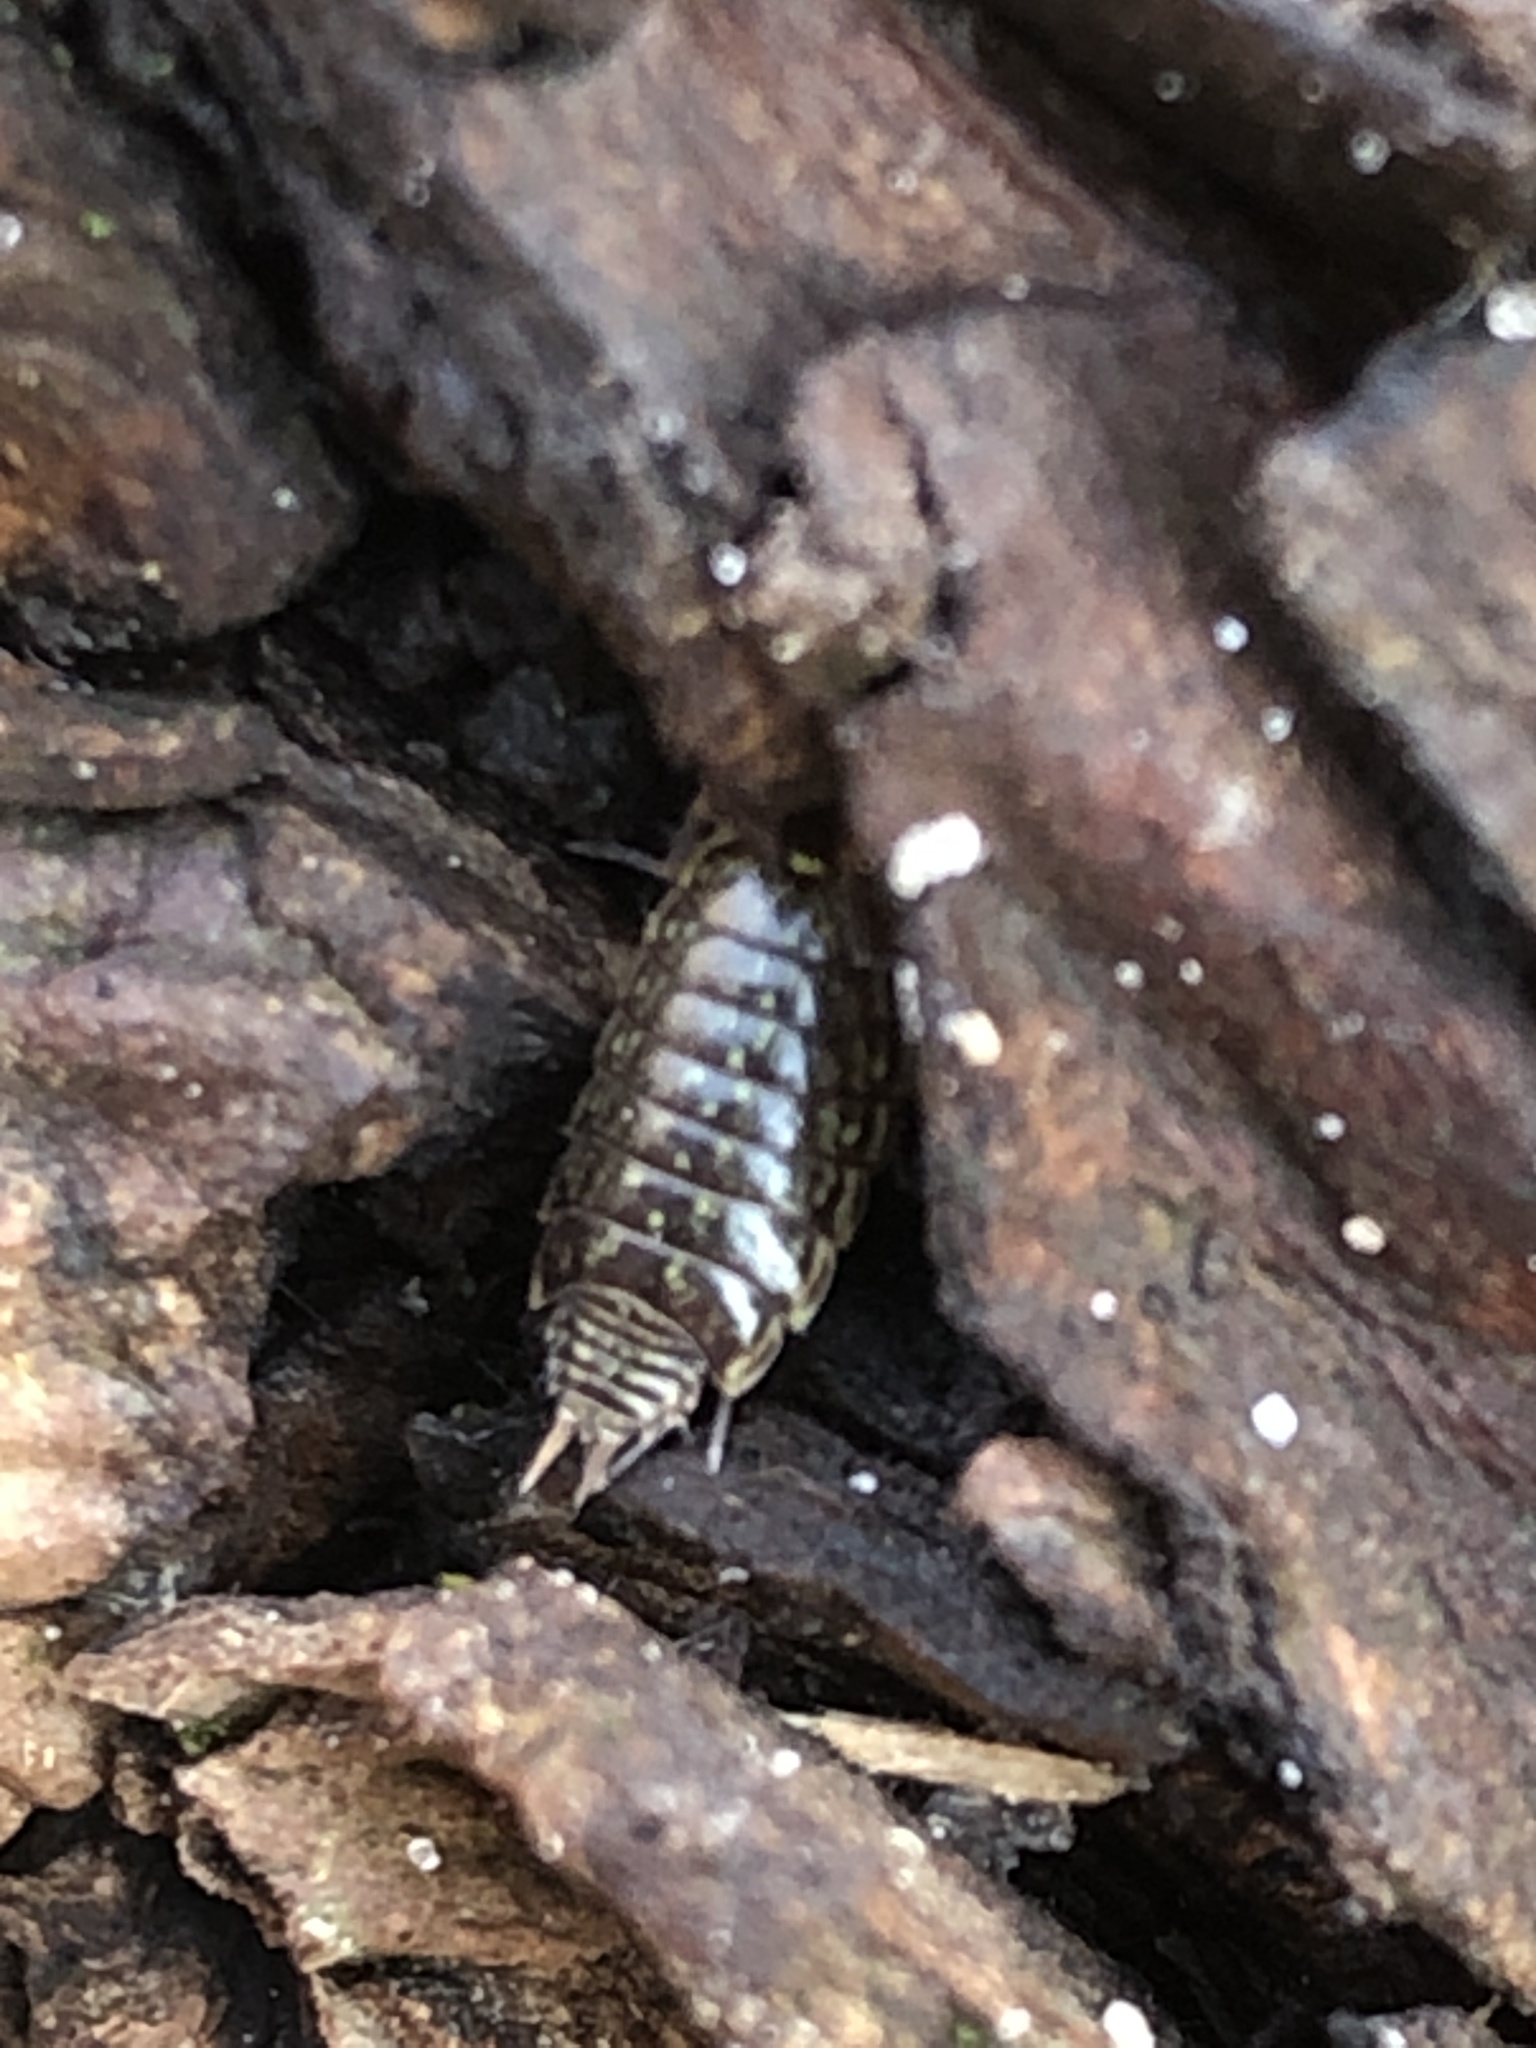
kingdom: Animalia
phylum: Arthropoda
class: Malacostraca
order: Isopoda
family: Philosciidae
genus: Philoscia
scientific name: Philoscia muscorum
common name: Common striped woodlouse
